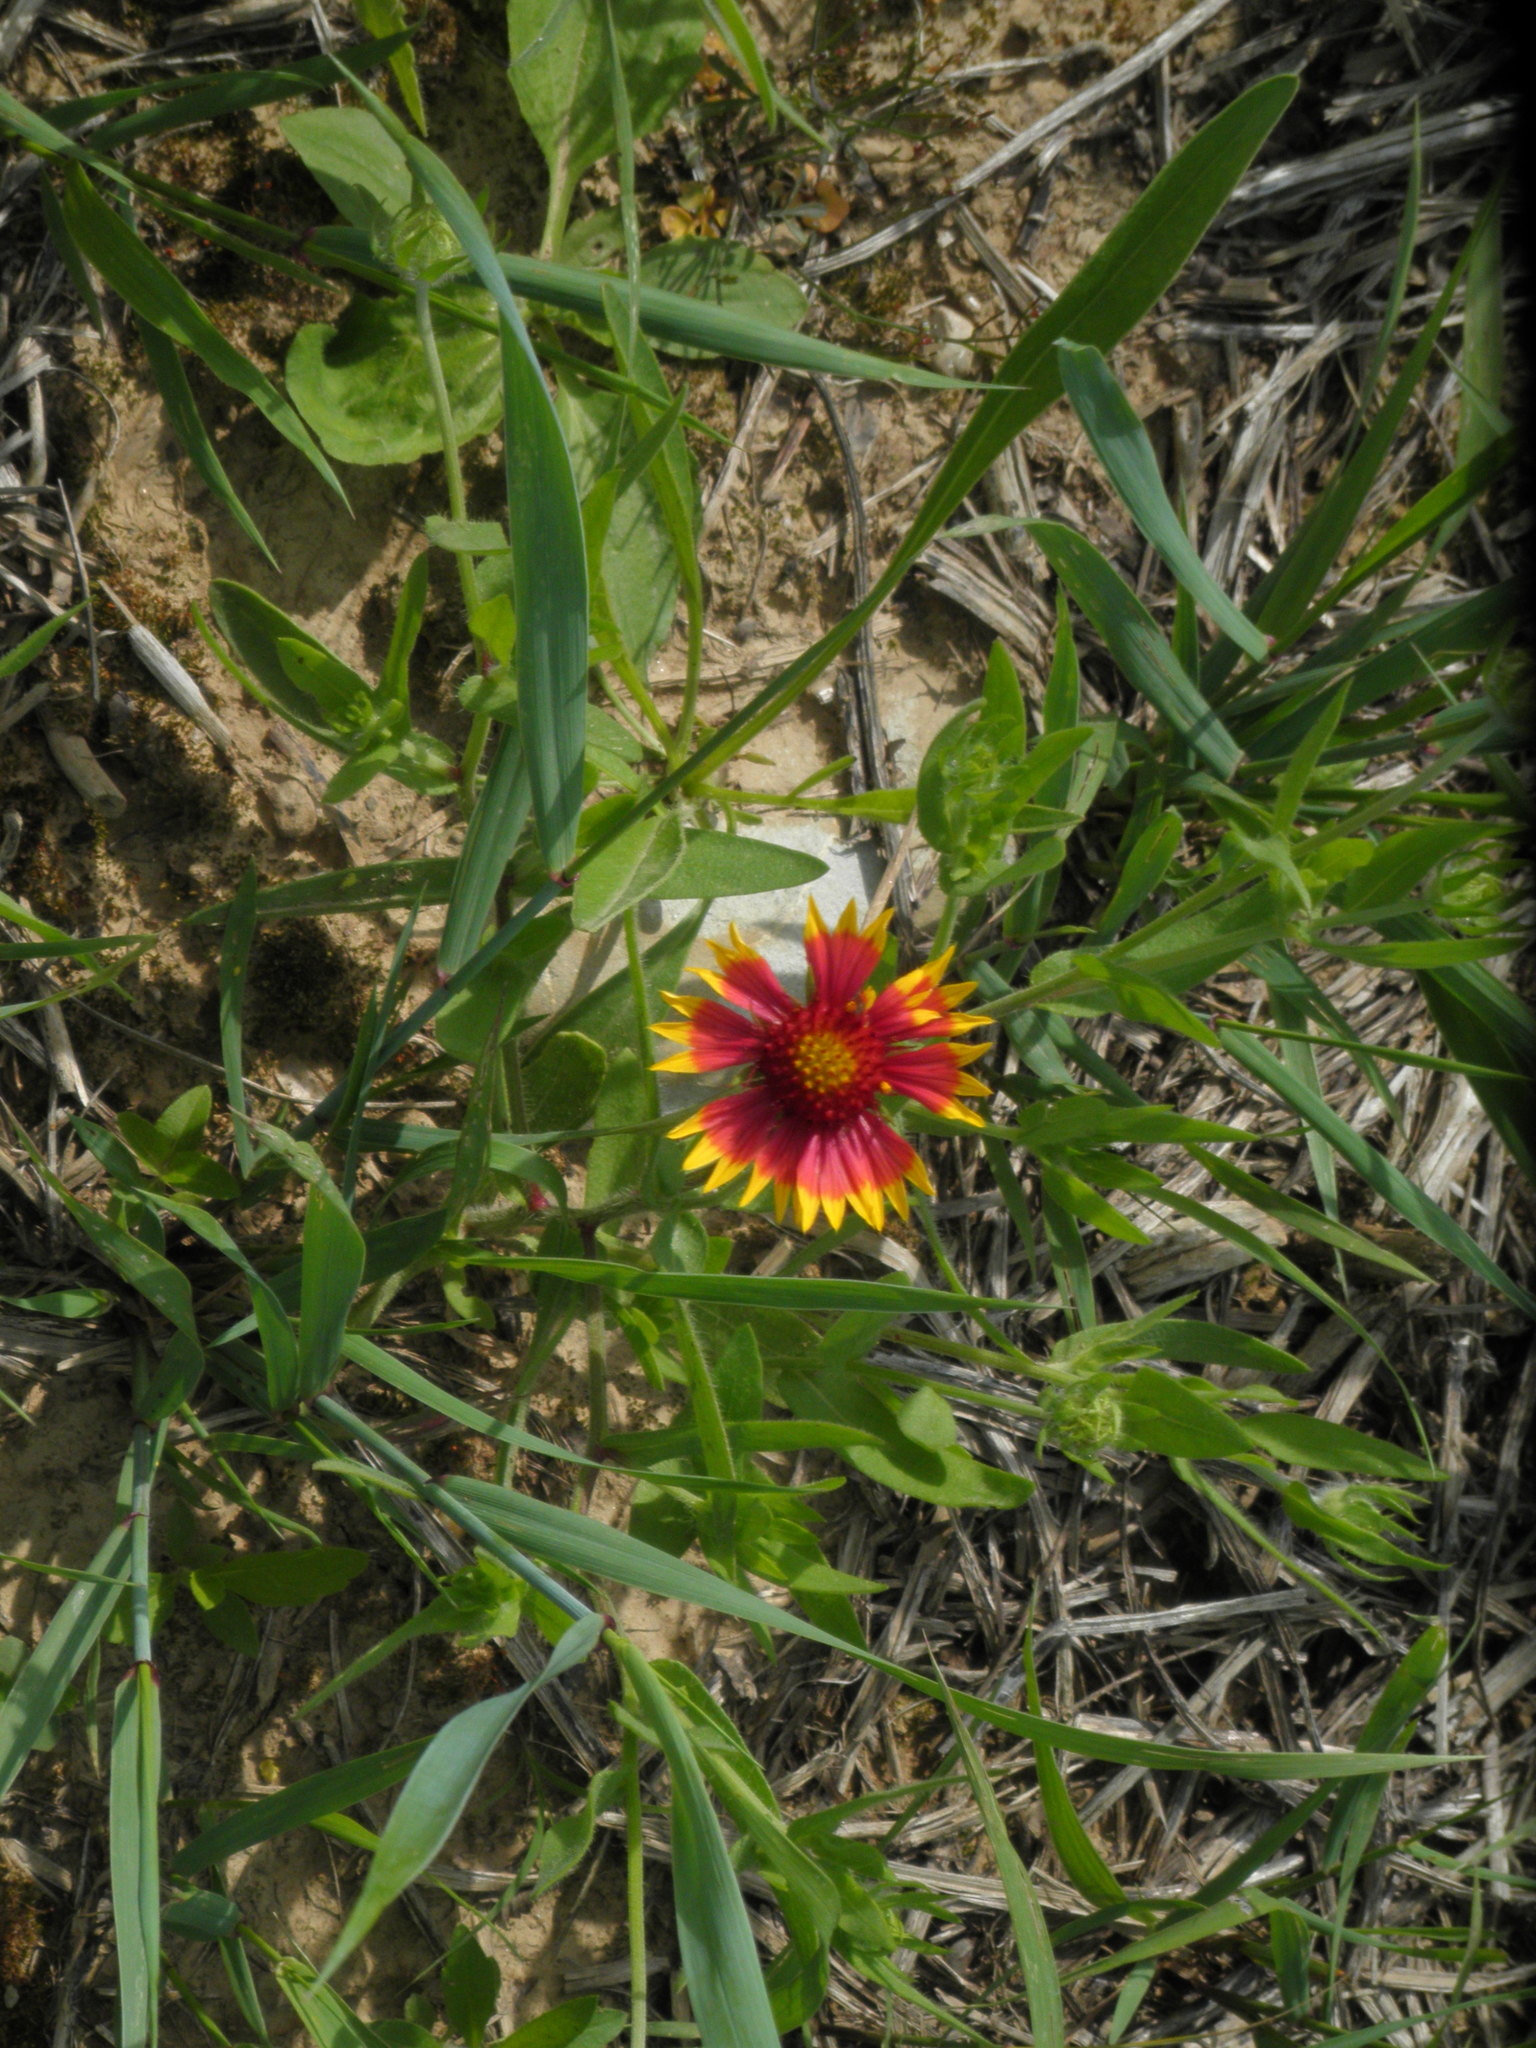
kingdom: Plantae
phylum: Tracheophyta
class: Magnoliopsida
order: Asterales
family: Asteraceae
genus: Gaillardia
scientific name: Gaillardia pulchella
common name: Firewheel
